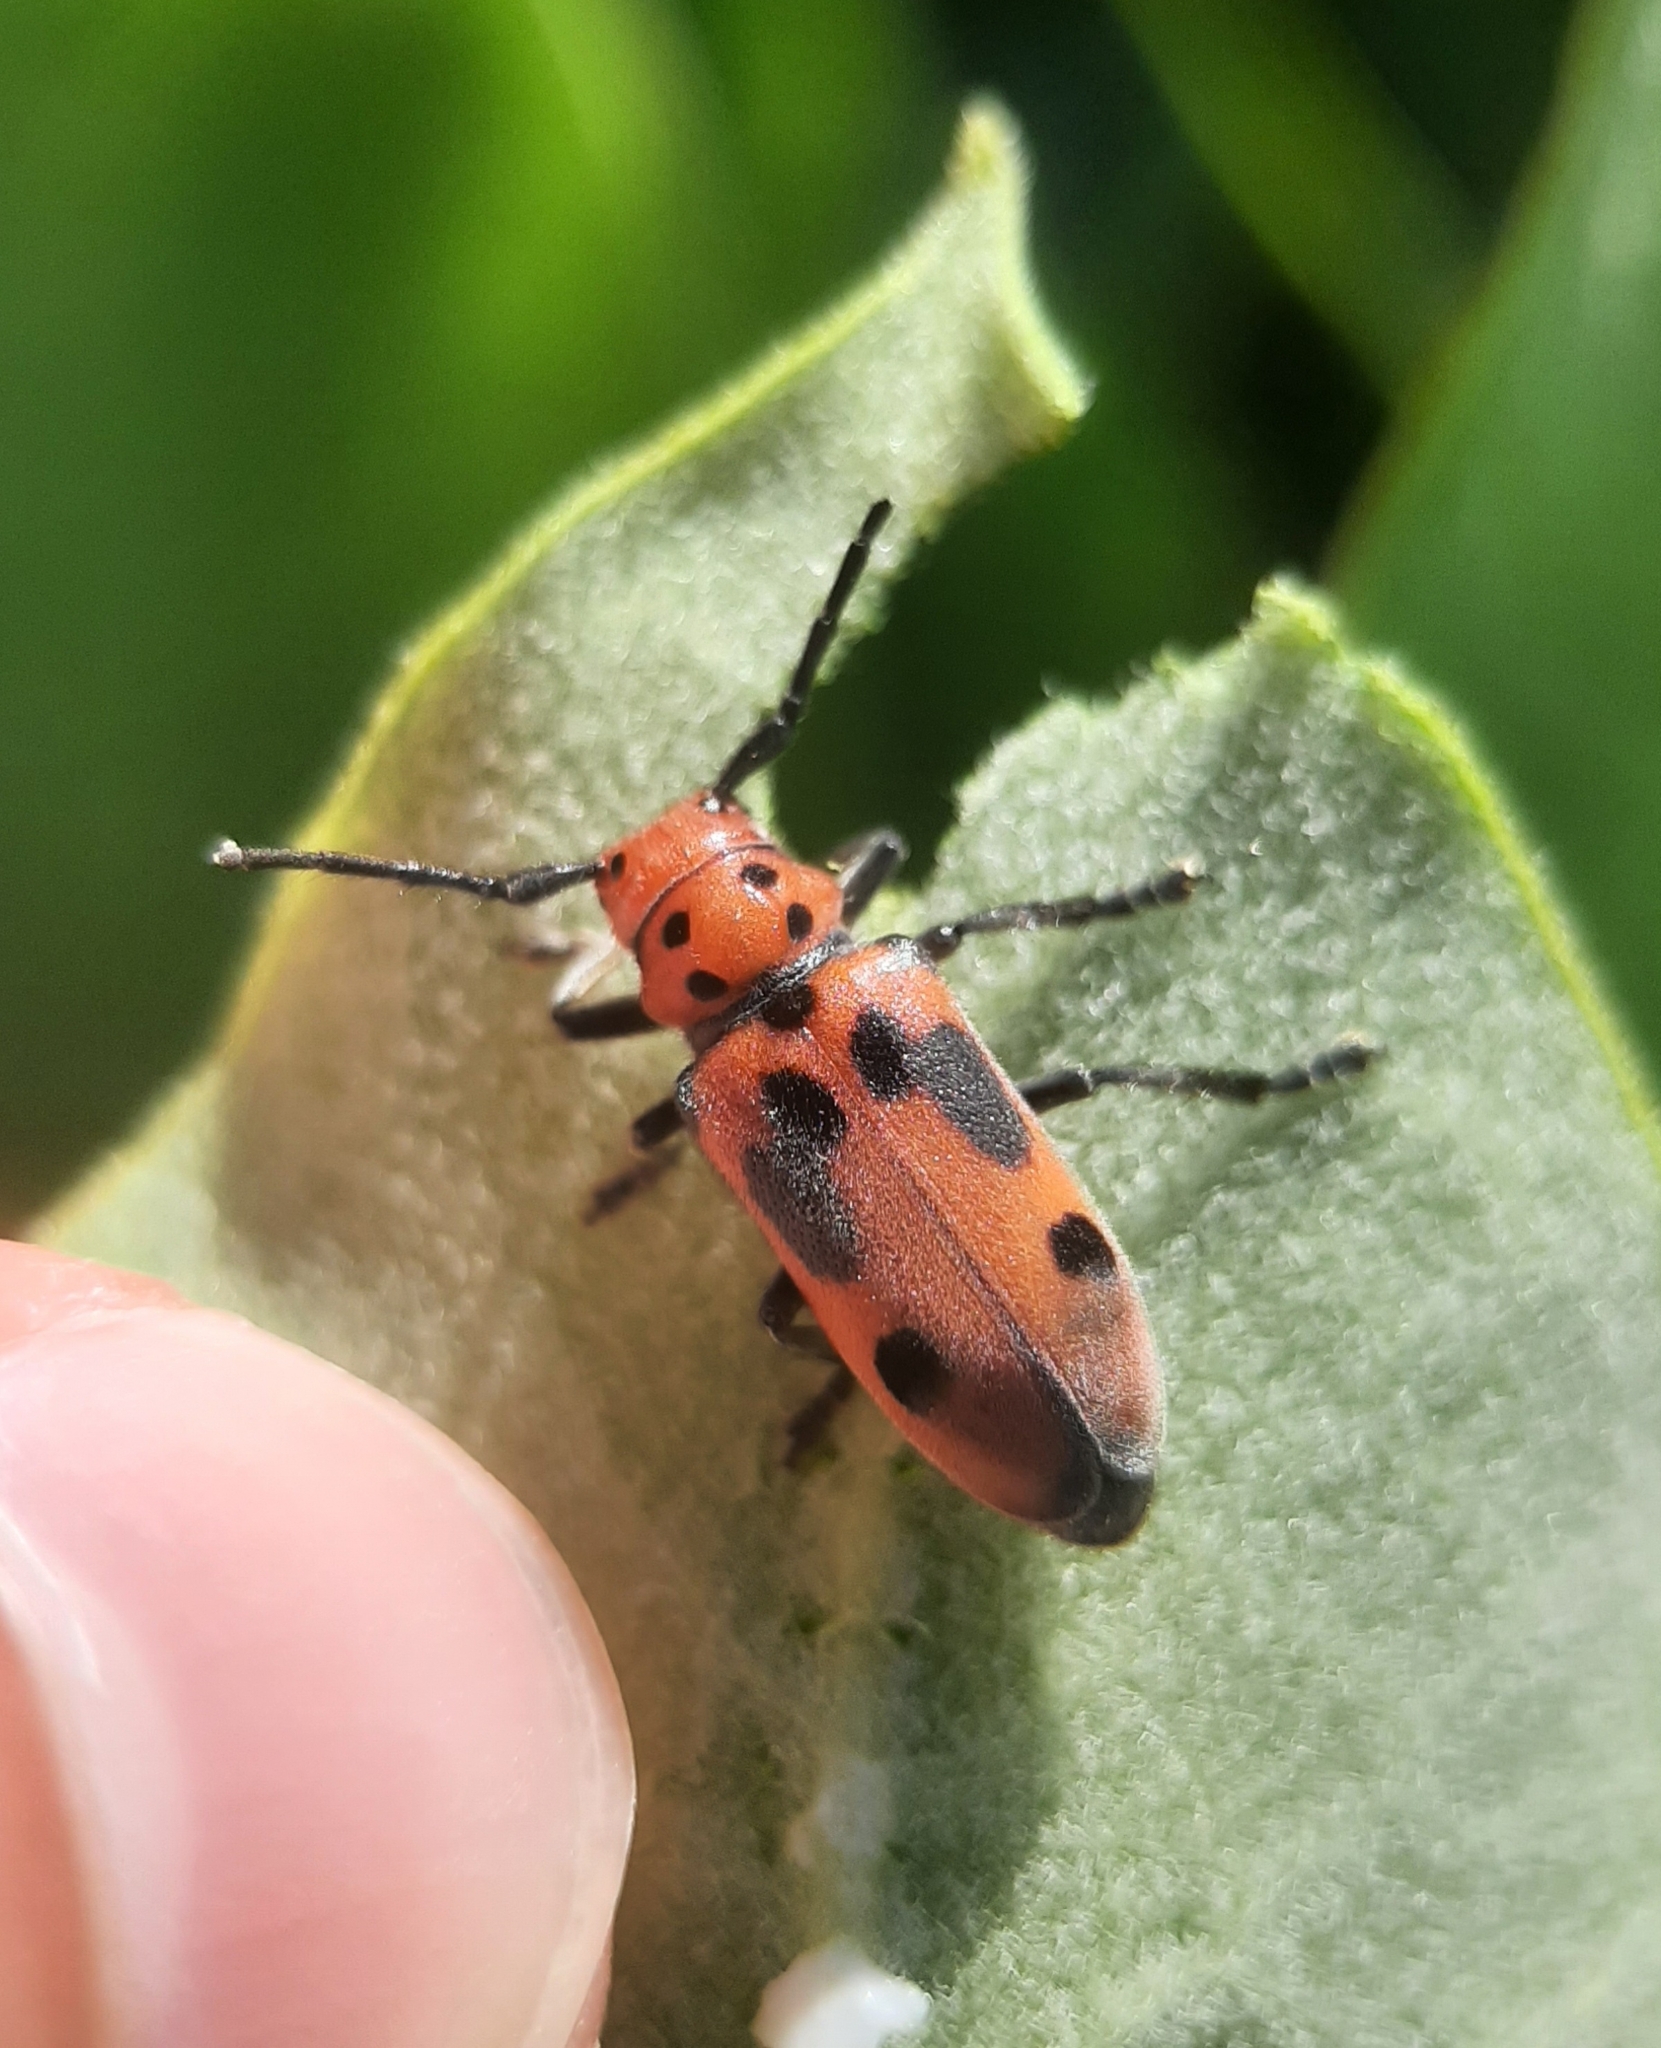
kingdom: Animalia
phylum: Arthropoda
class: Insecta
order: Coleoptera
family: Cerambycidae
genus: Tetraopes
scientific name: Tetraopes tetrophthalmus
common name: Red milkweed beetle
